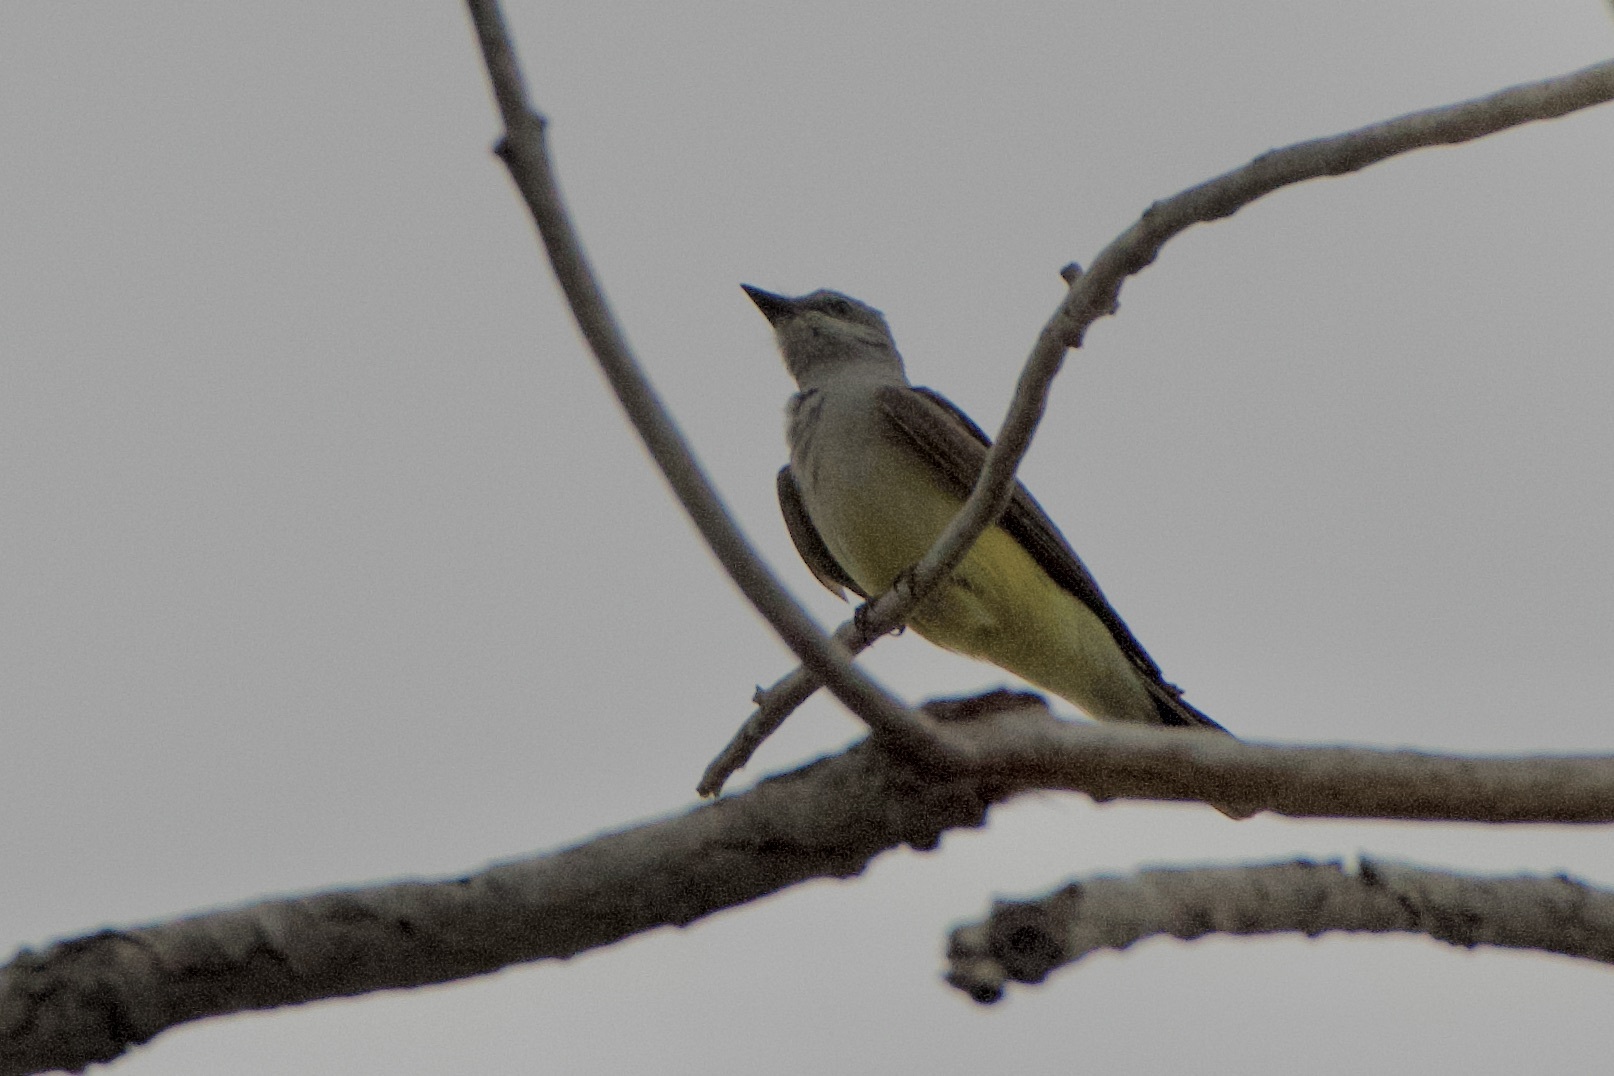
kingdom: Animalia
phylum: Chordata
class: Aves
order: Passeriformes
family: Tyrannidae
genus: Tyrannus
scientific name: Tyrannus verticalis
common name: Western kingbird
